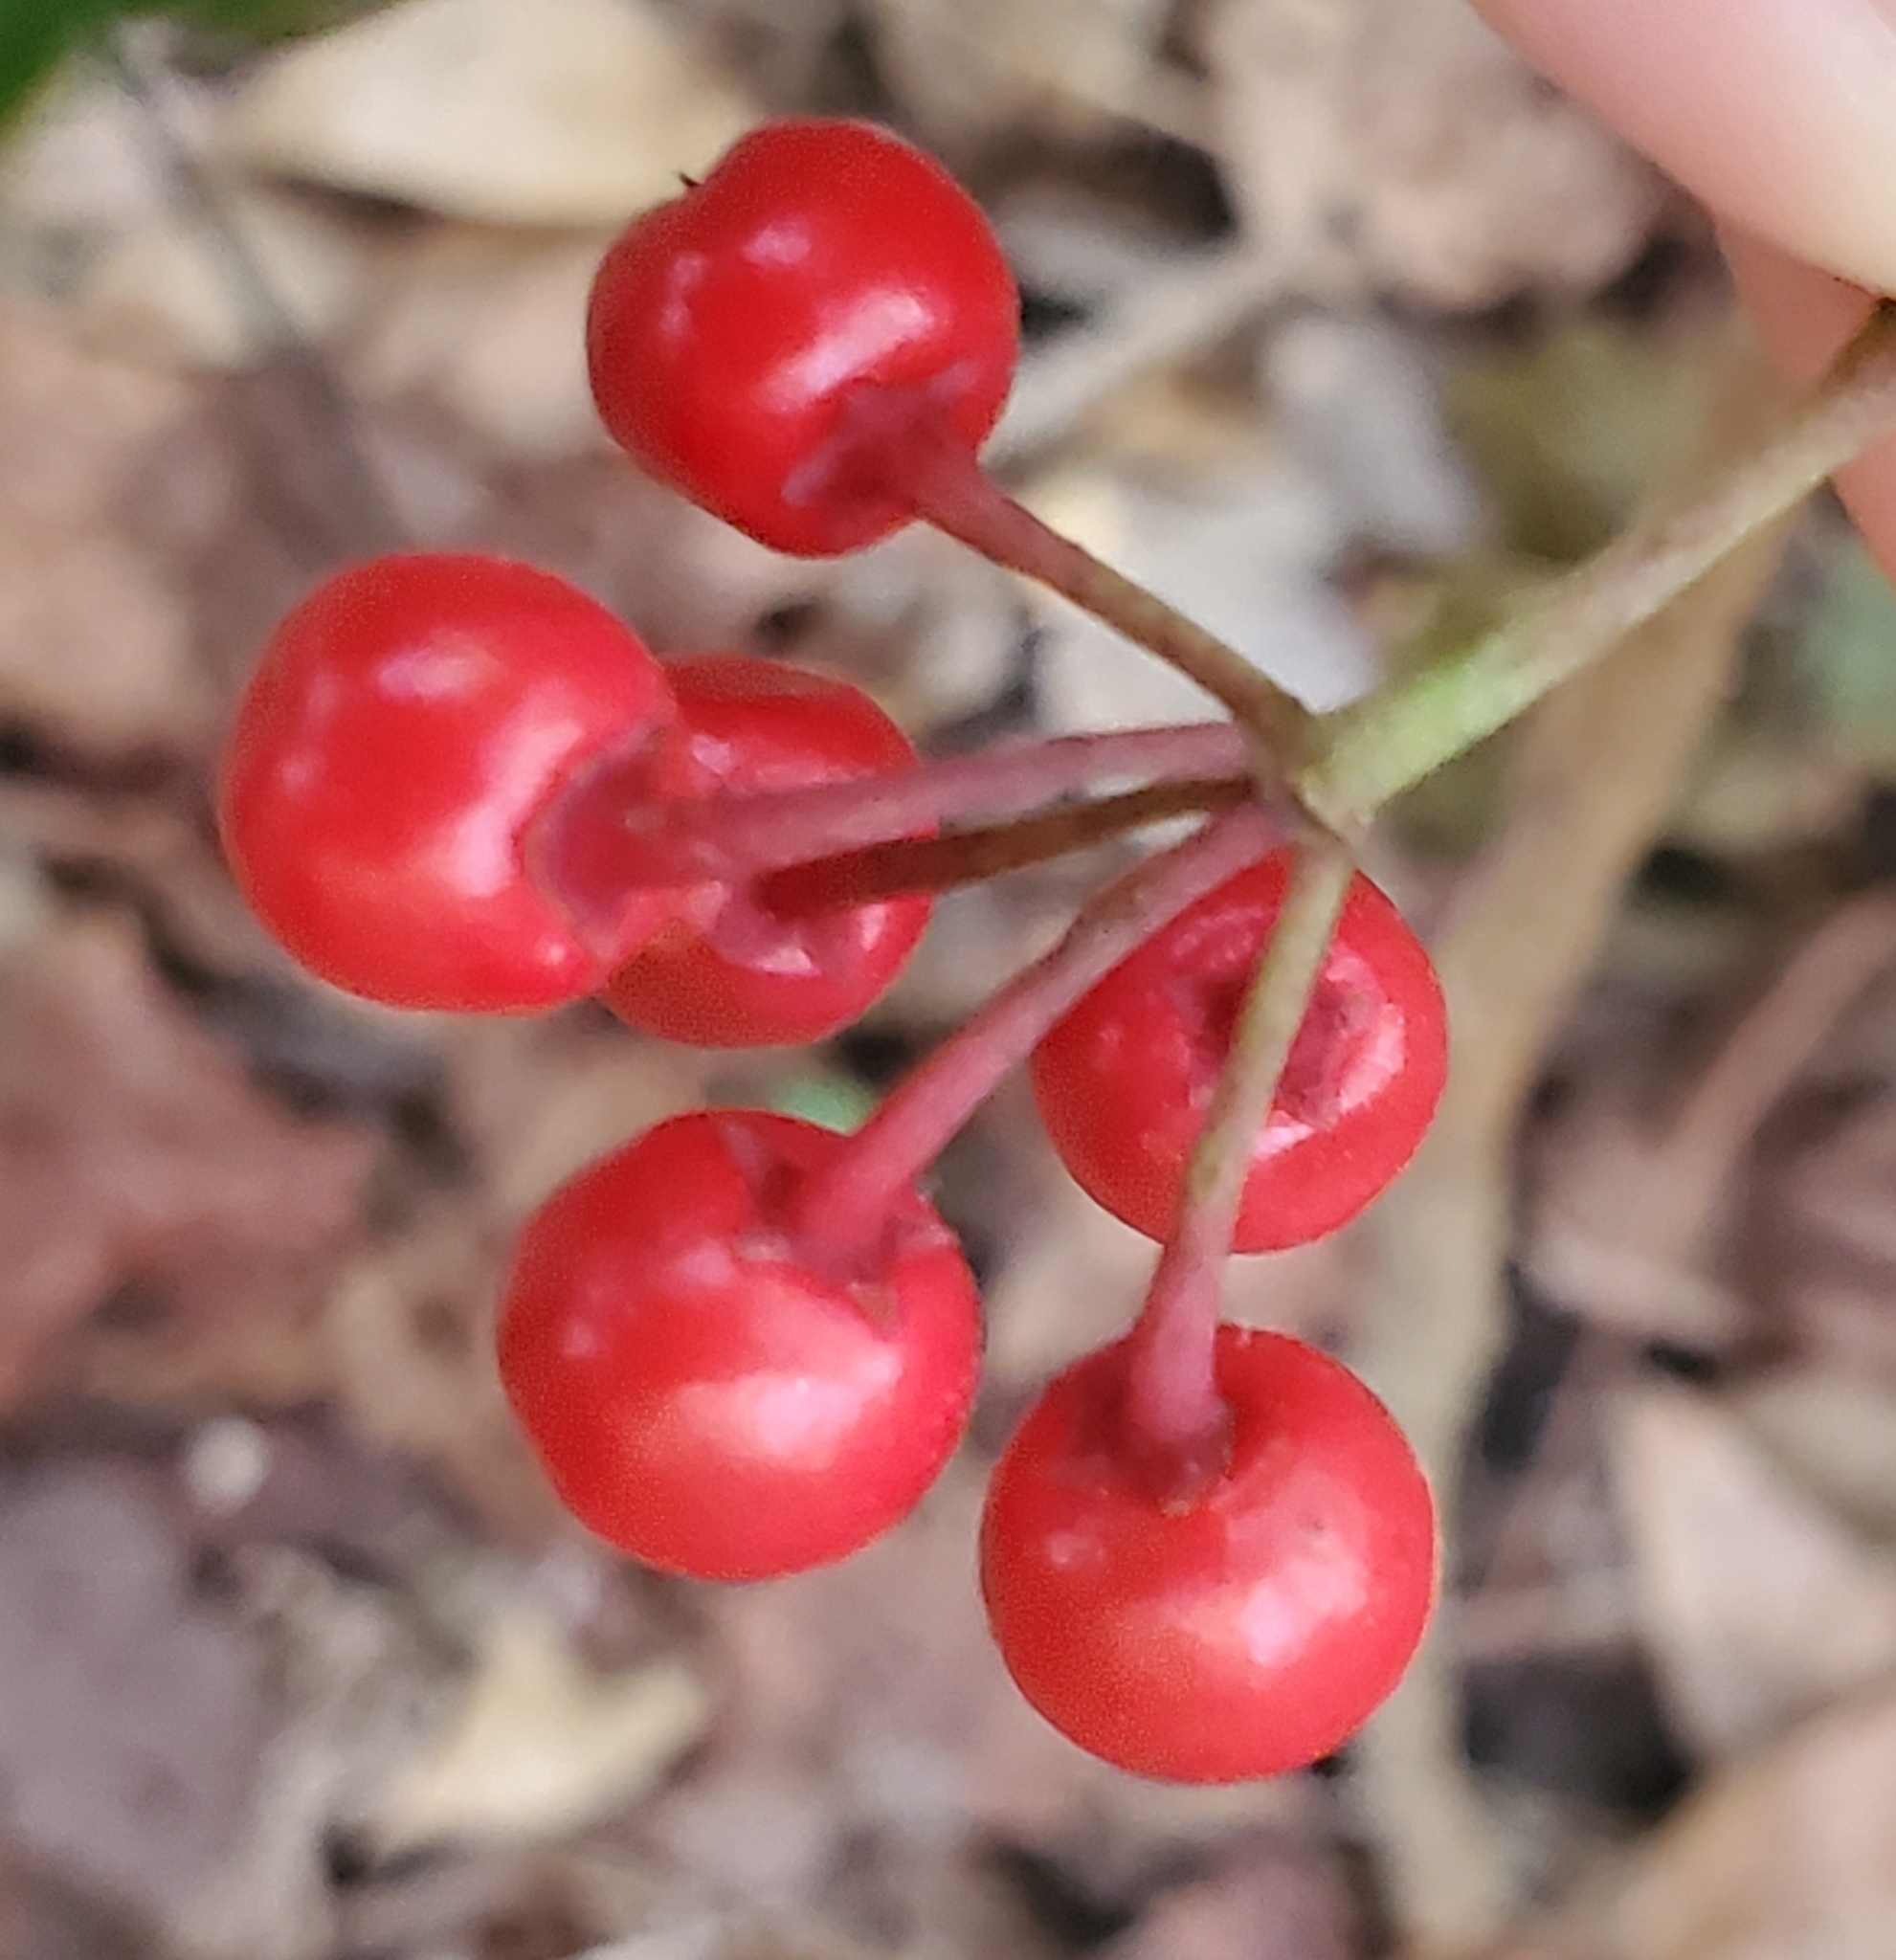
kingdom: Plantae
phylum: Tracheophyta
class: Magnoliopsida
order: Ericales
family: Primulaceae
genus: Ardisia
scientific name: Ardisia crenata
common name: Hen's eyes
